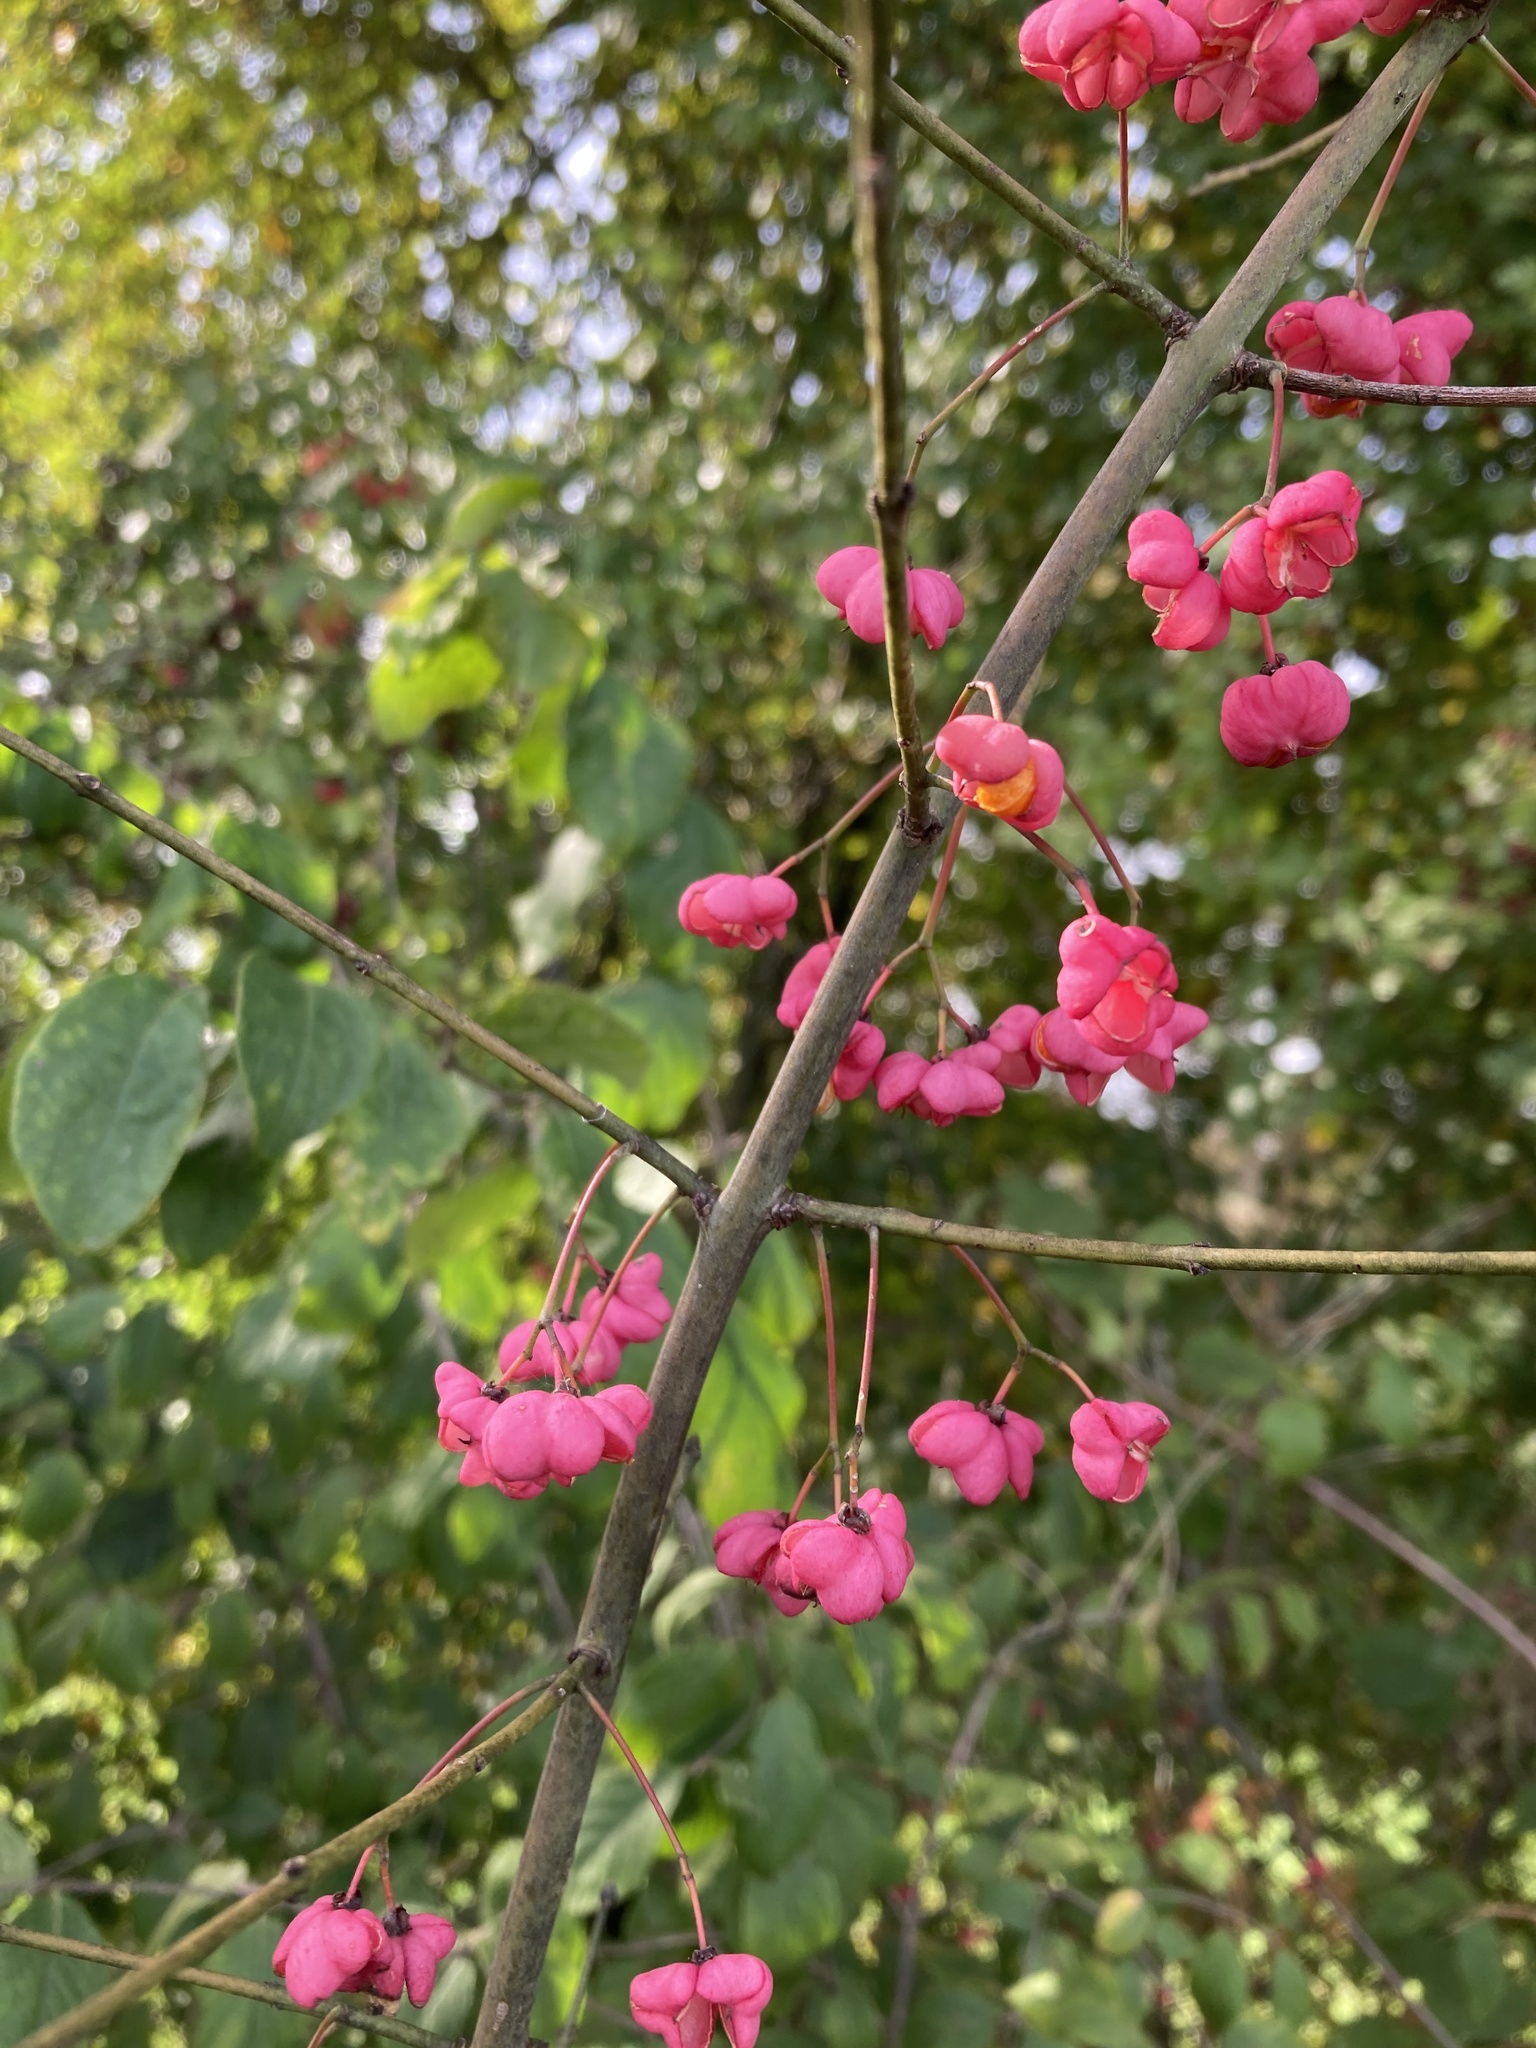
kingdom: Plantae
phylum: Tracheophyta
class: Magnoliopsida
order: Celastrales
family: Celastraceae
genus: Euonymus
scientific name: Euonymus europaeus
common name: Spindle
